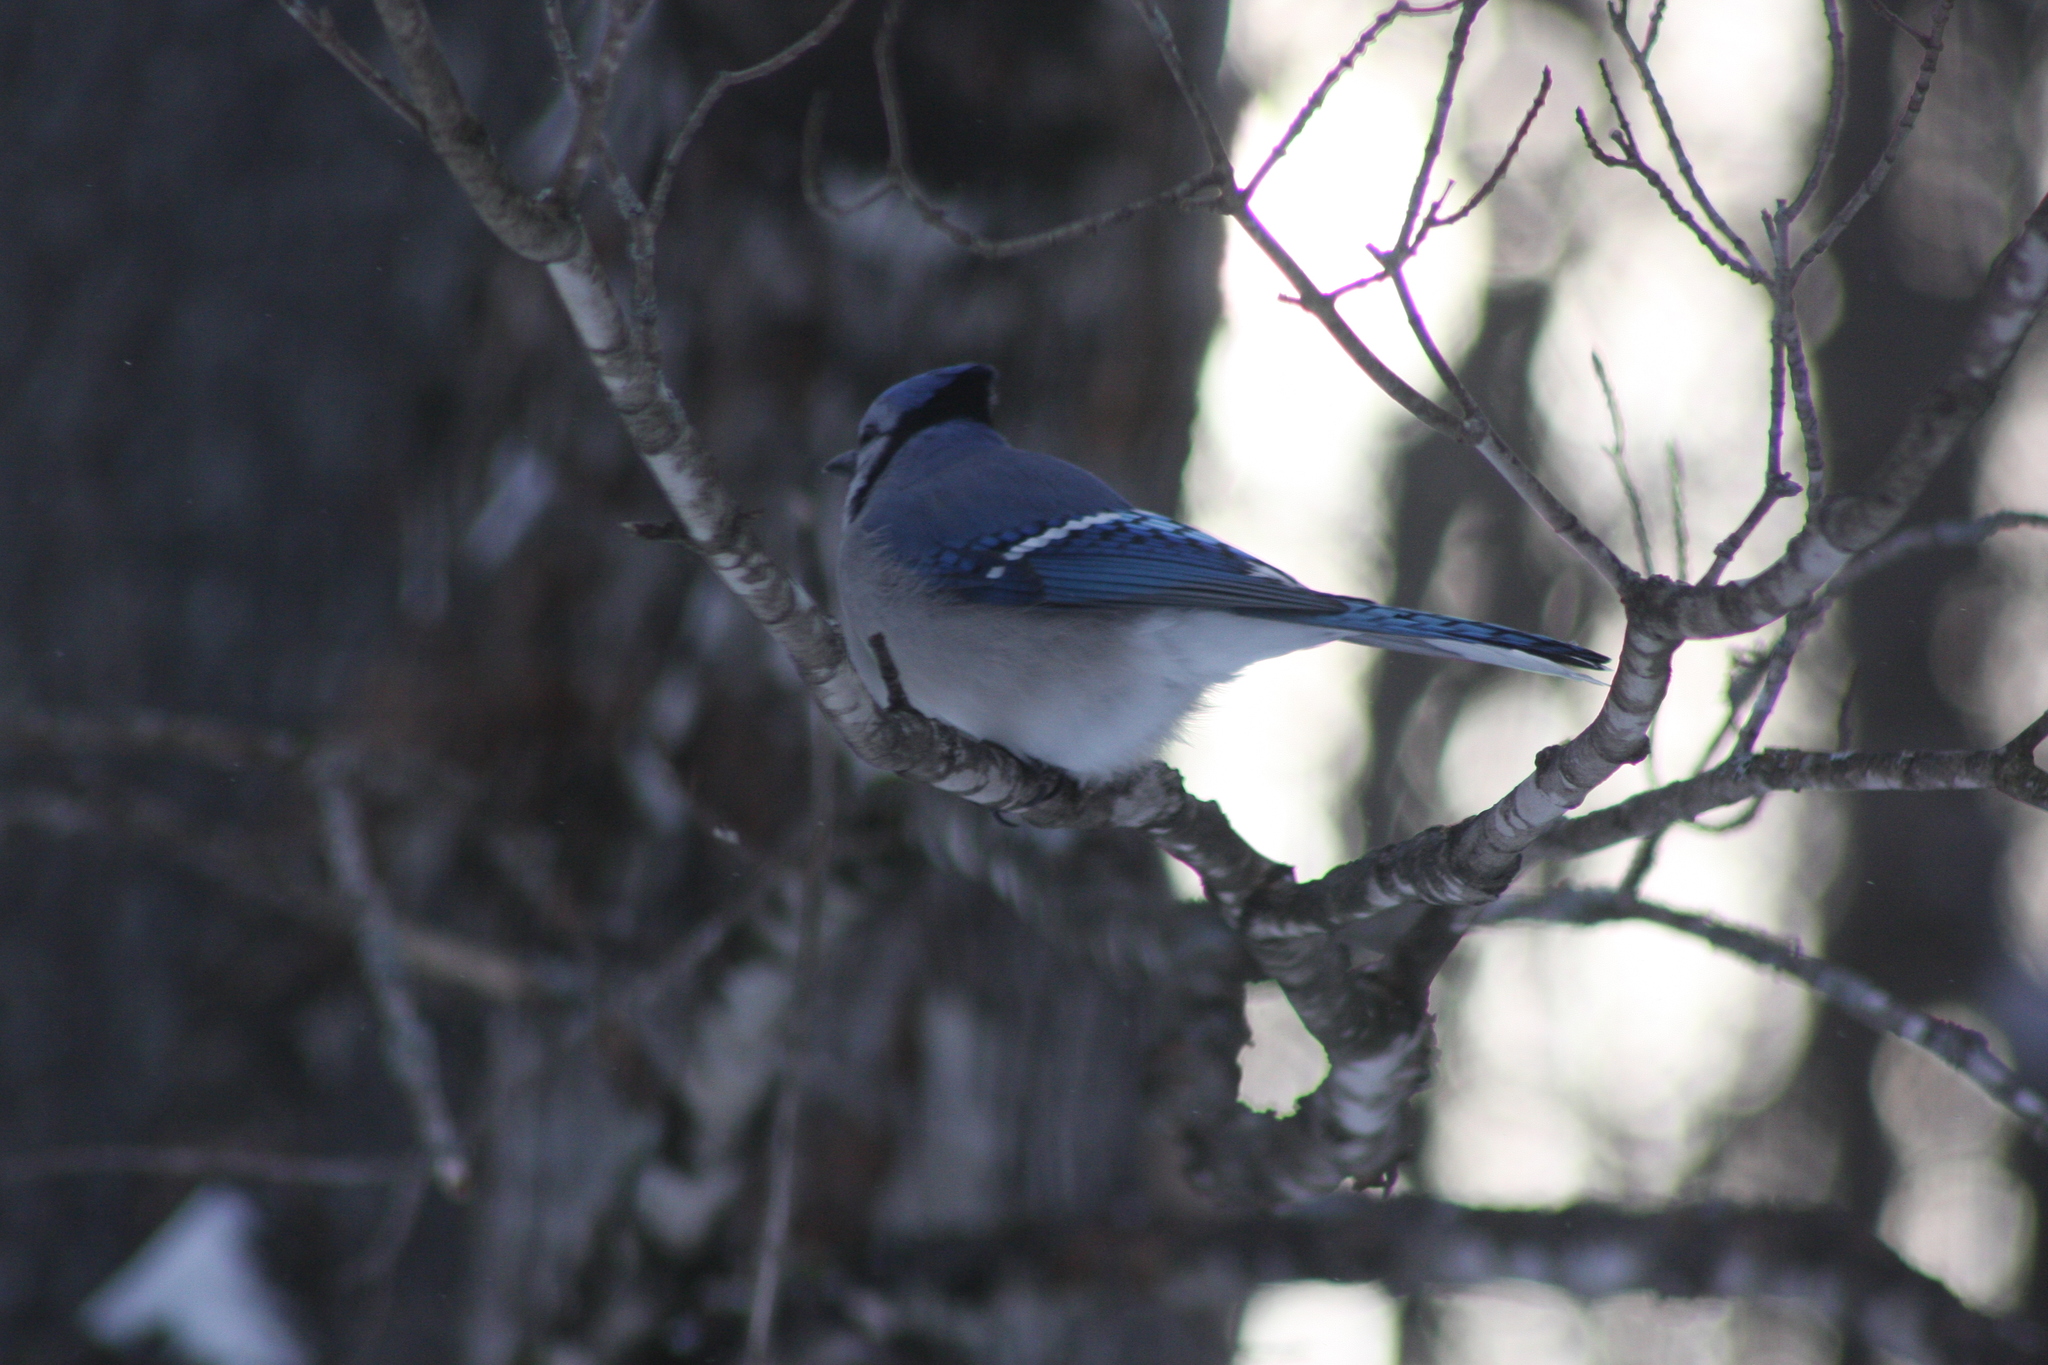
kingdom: Animalia
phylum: Chordata
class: Aves
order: Passeriformes
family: Corvidae
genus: Cyanocitta
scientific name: Cyanocitta cristata
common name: Blue jay
